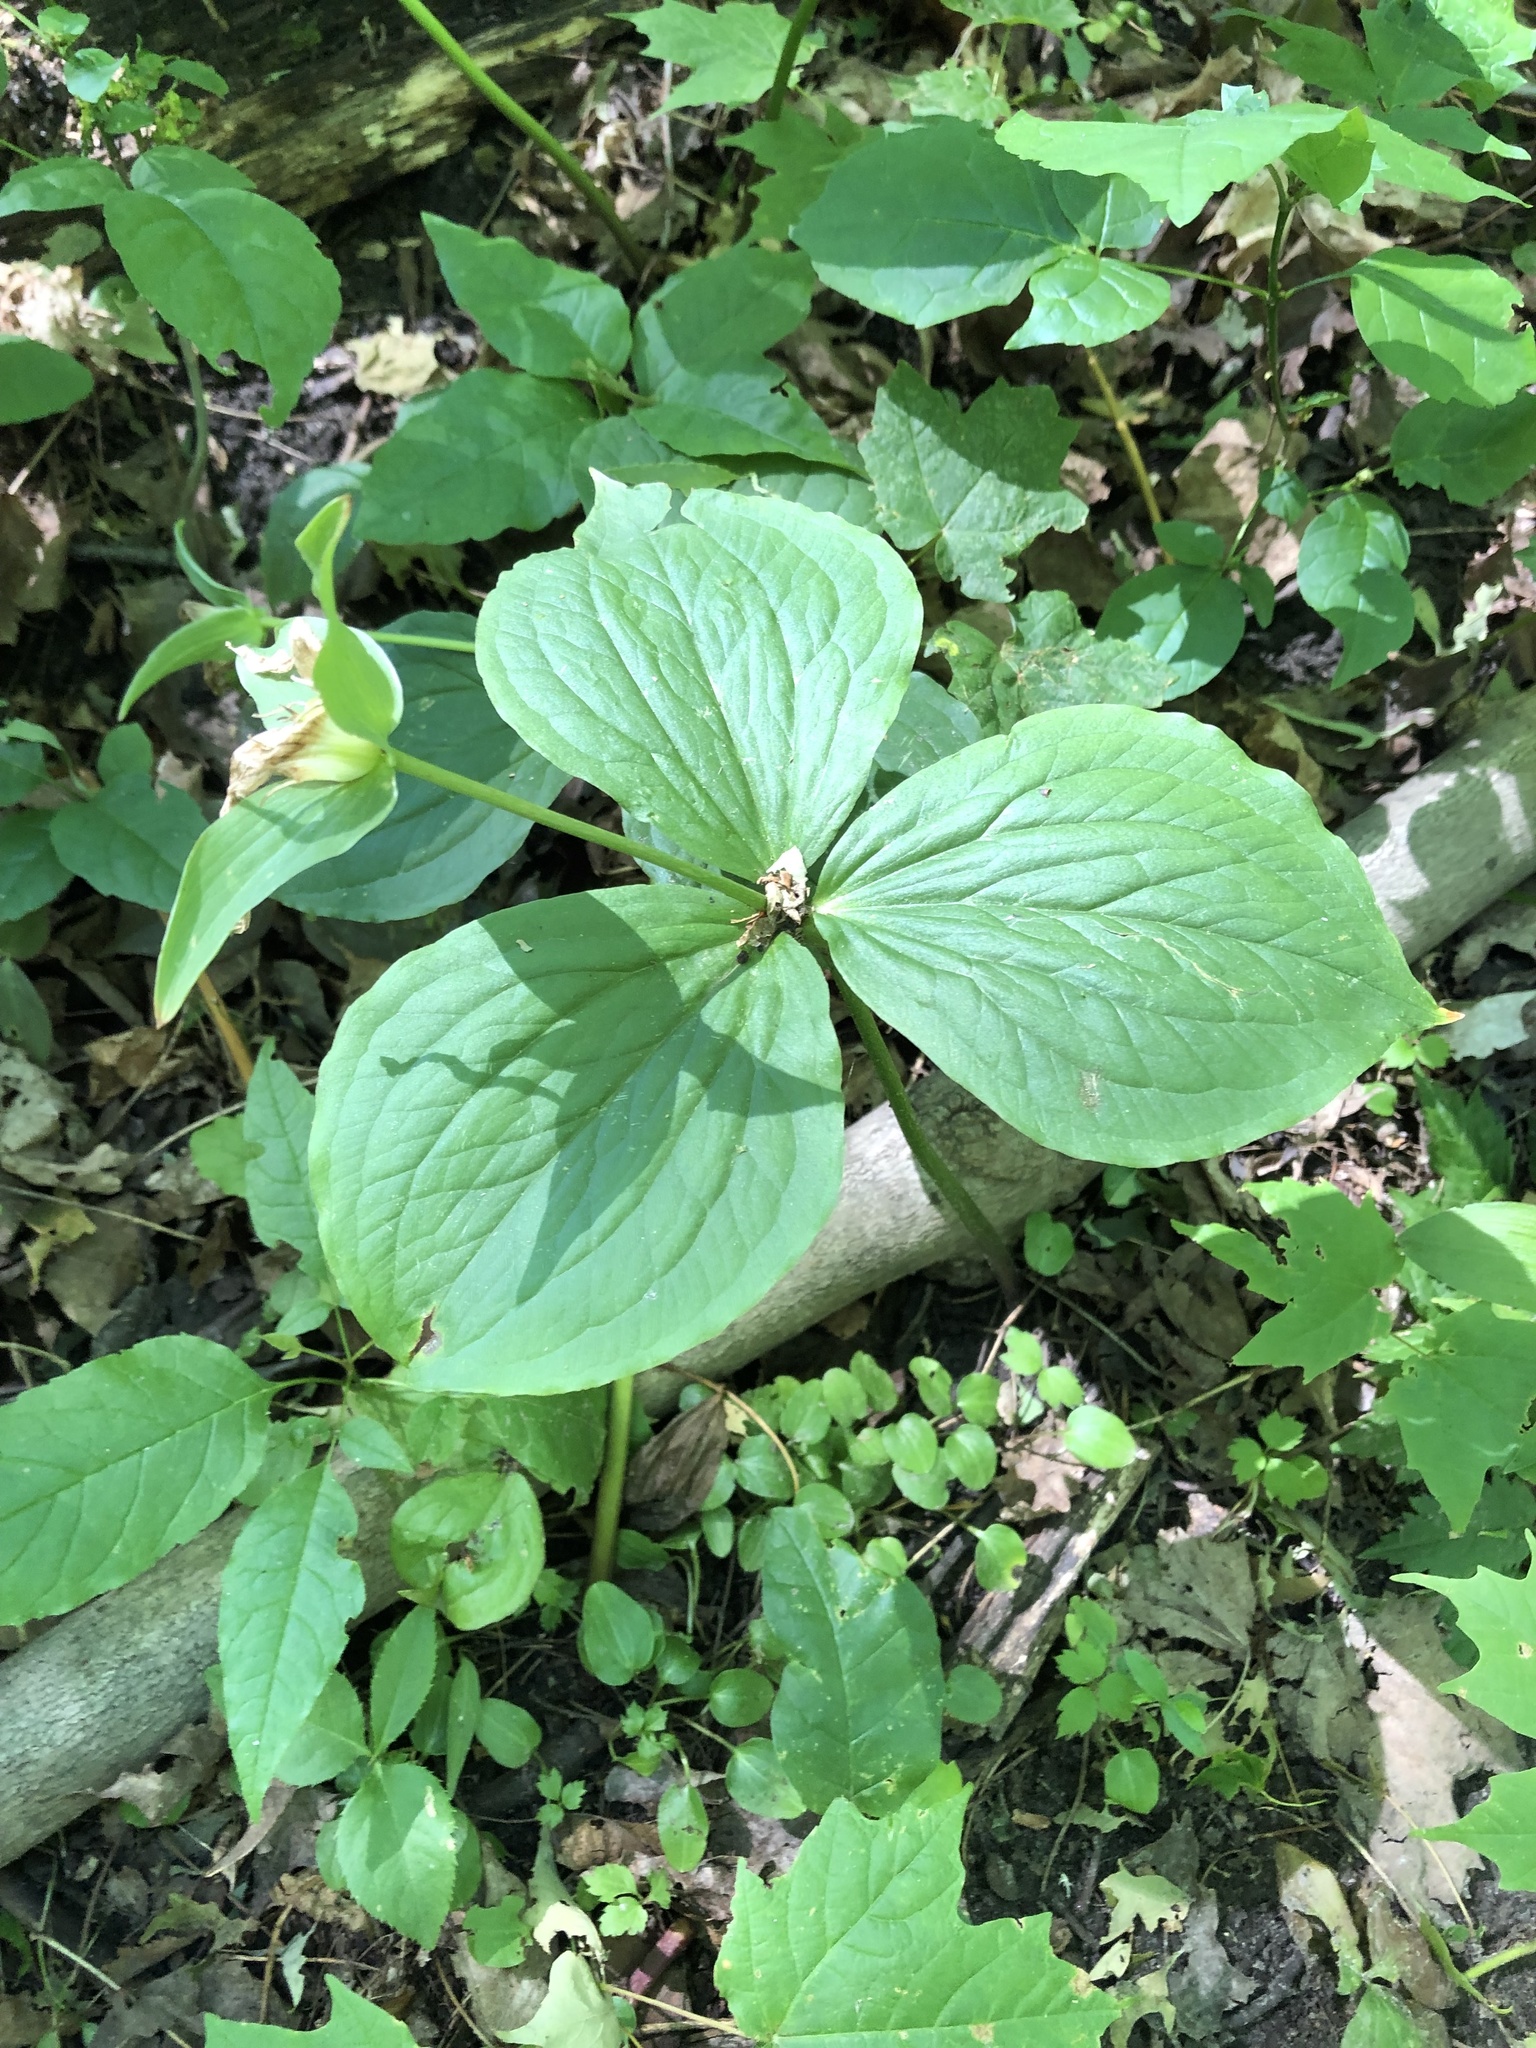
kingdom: Plantae
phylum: Tracheophyta
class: Liliopsida
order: Liliales
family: Melanthiaceae
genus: Trillium
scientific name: Trillium grandiflorum
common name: Great white trillium
